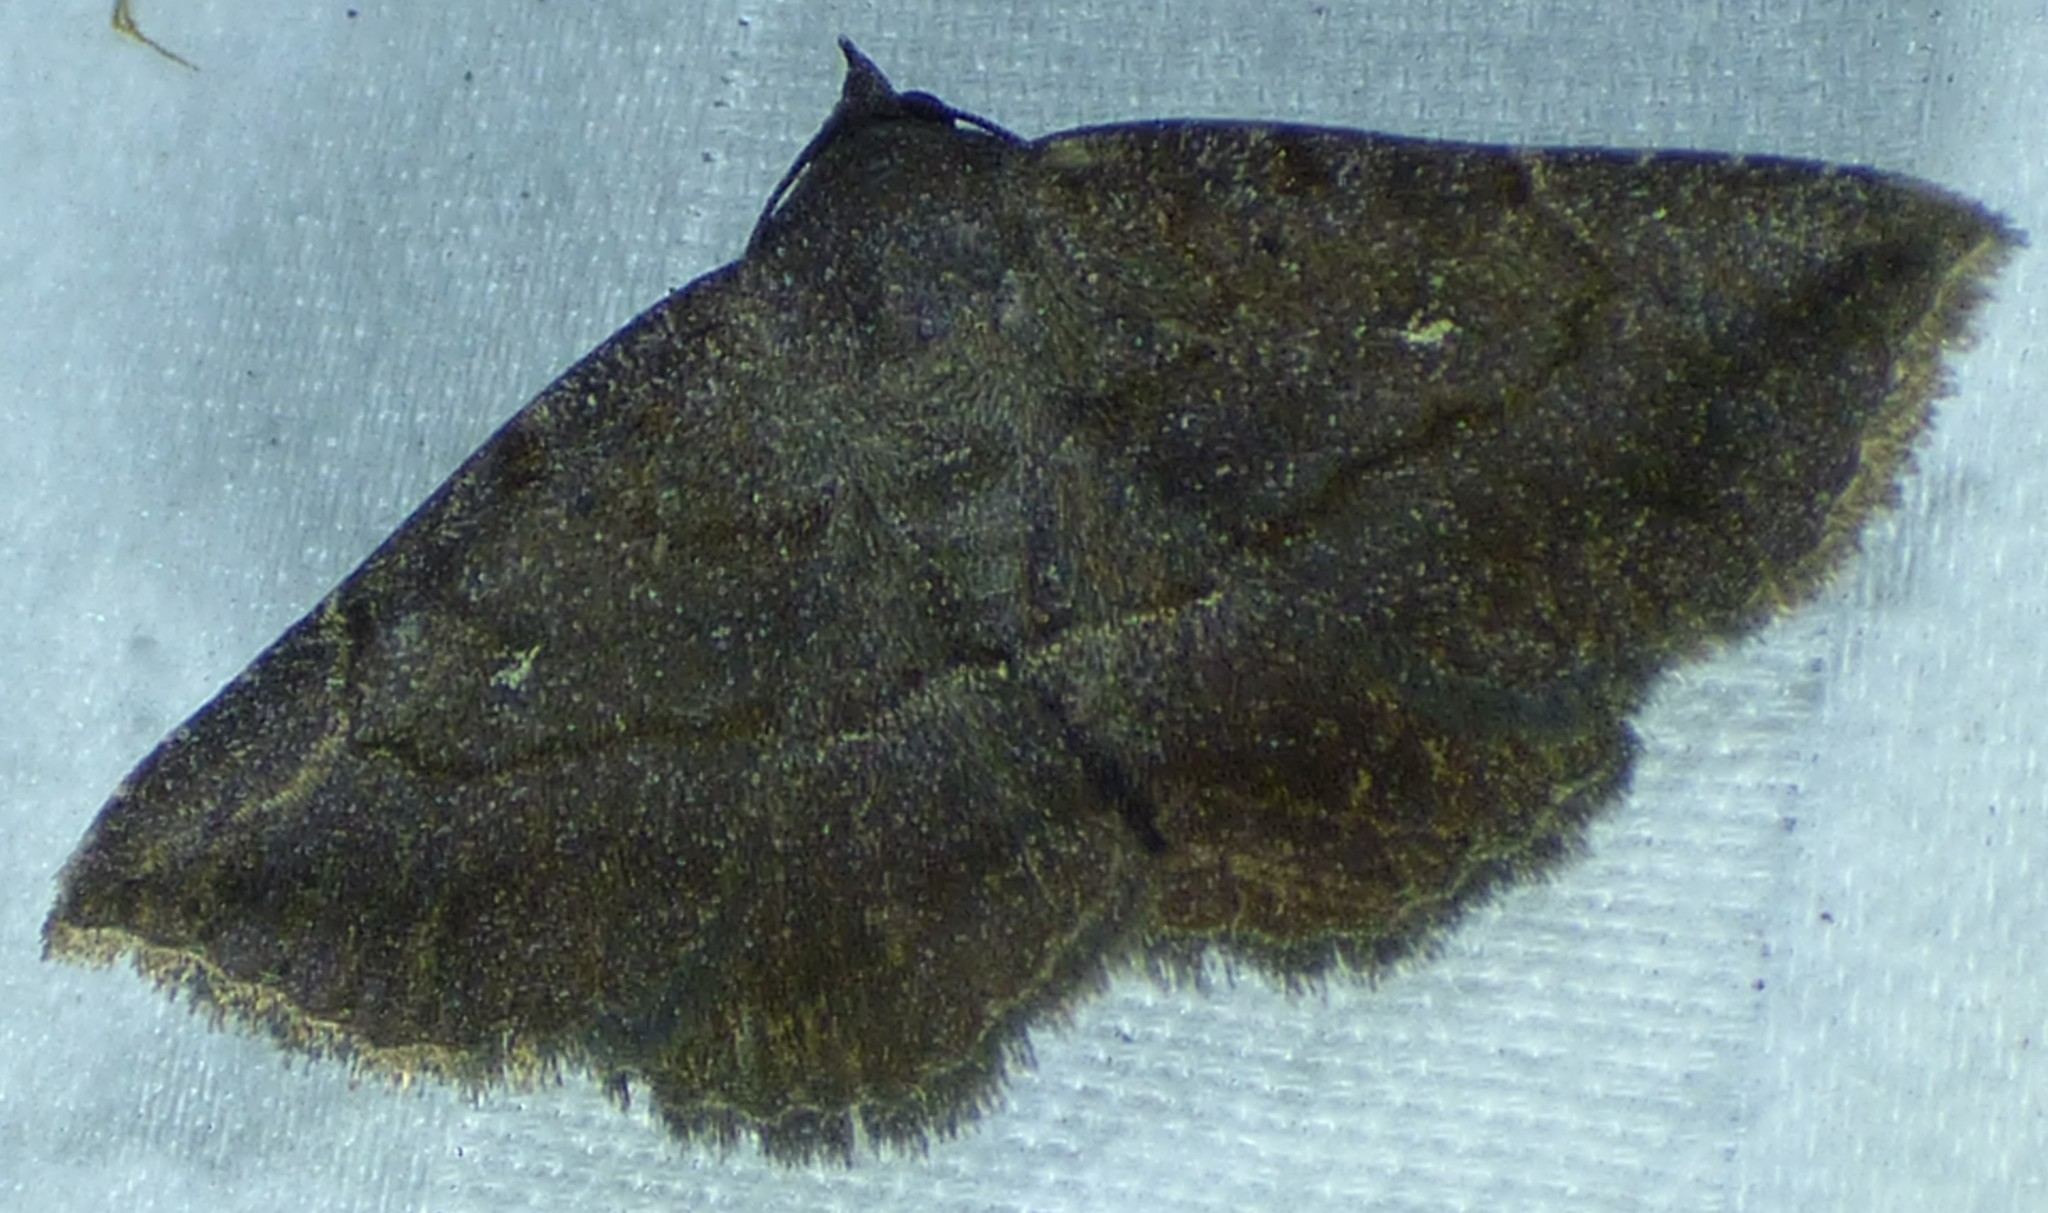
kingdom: Animalia
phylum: Arthropoda
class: Insecta
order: Lepidoptera
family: Erebidae
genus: Lesmone
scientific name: Lesmone detrahens
